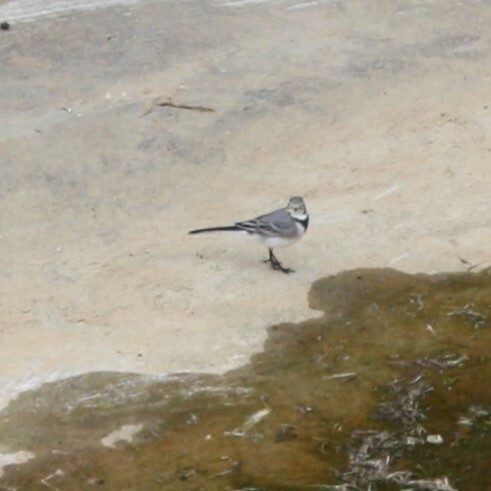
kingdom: Animalia
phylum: Chordata
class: Aves
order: Passeriformes
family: Motacillidae
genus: Motacilla
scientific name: Motacilla alba
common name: White wagtail
